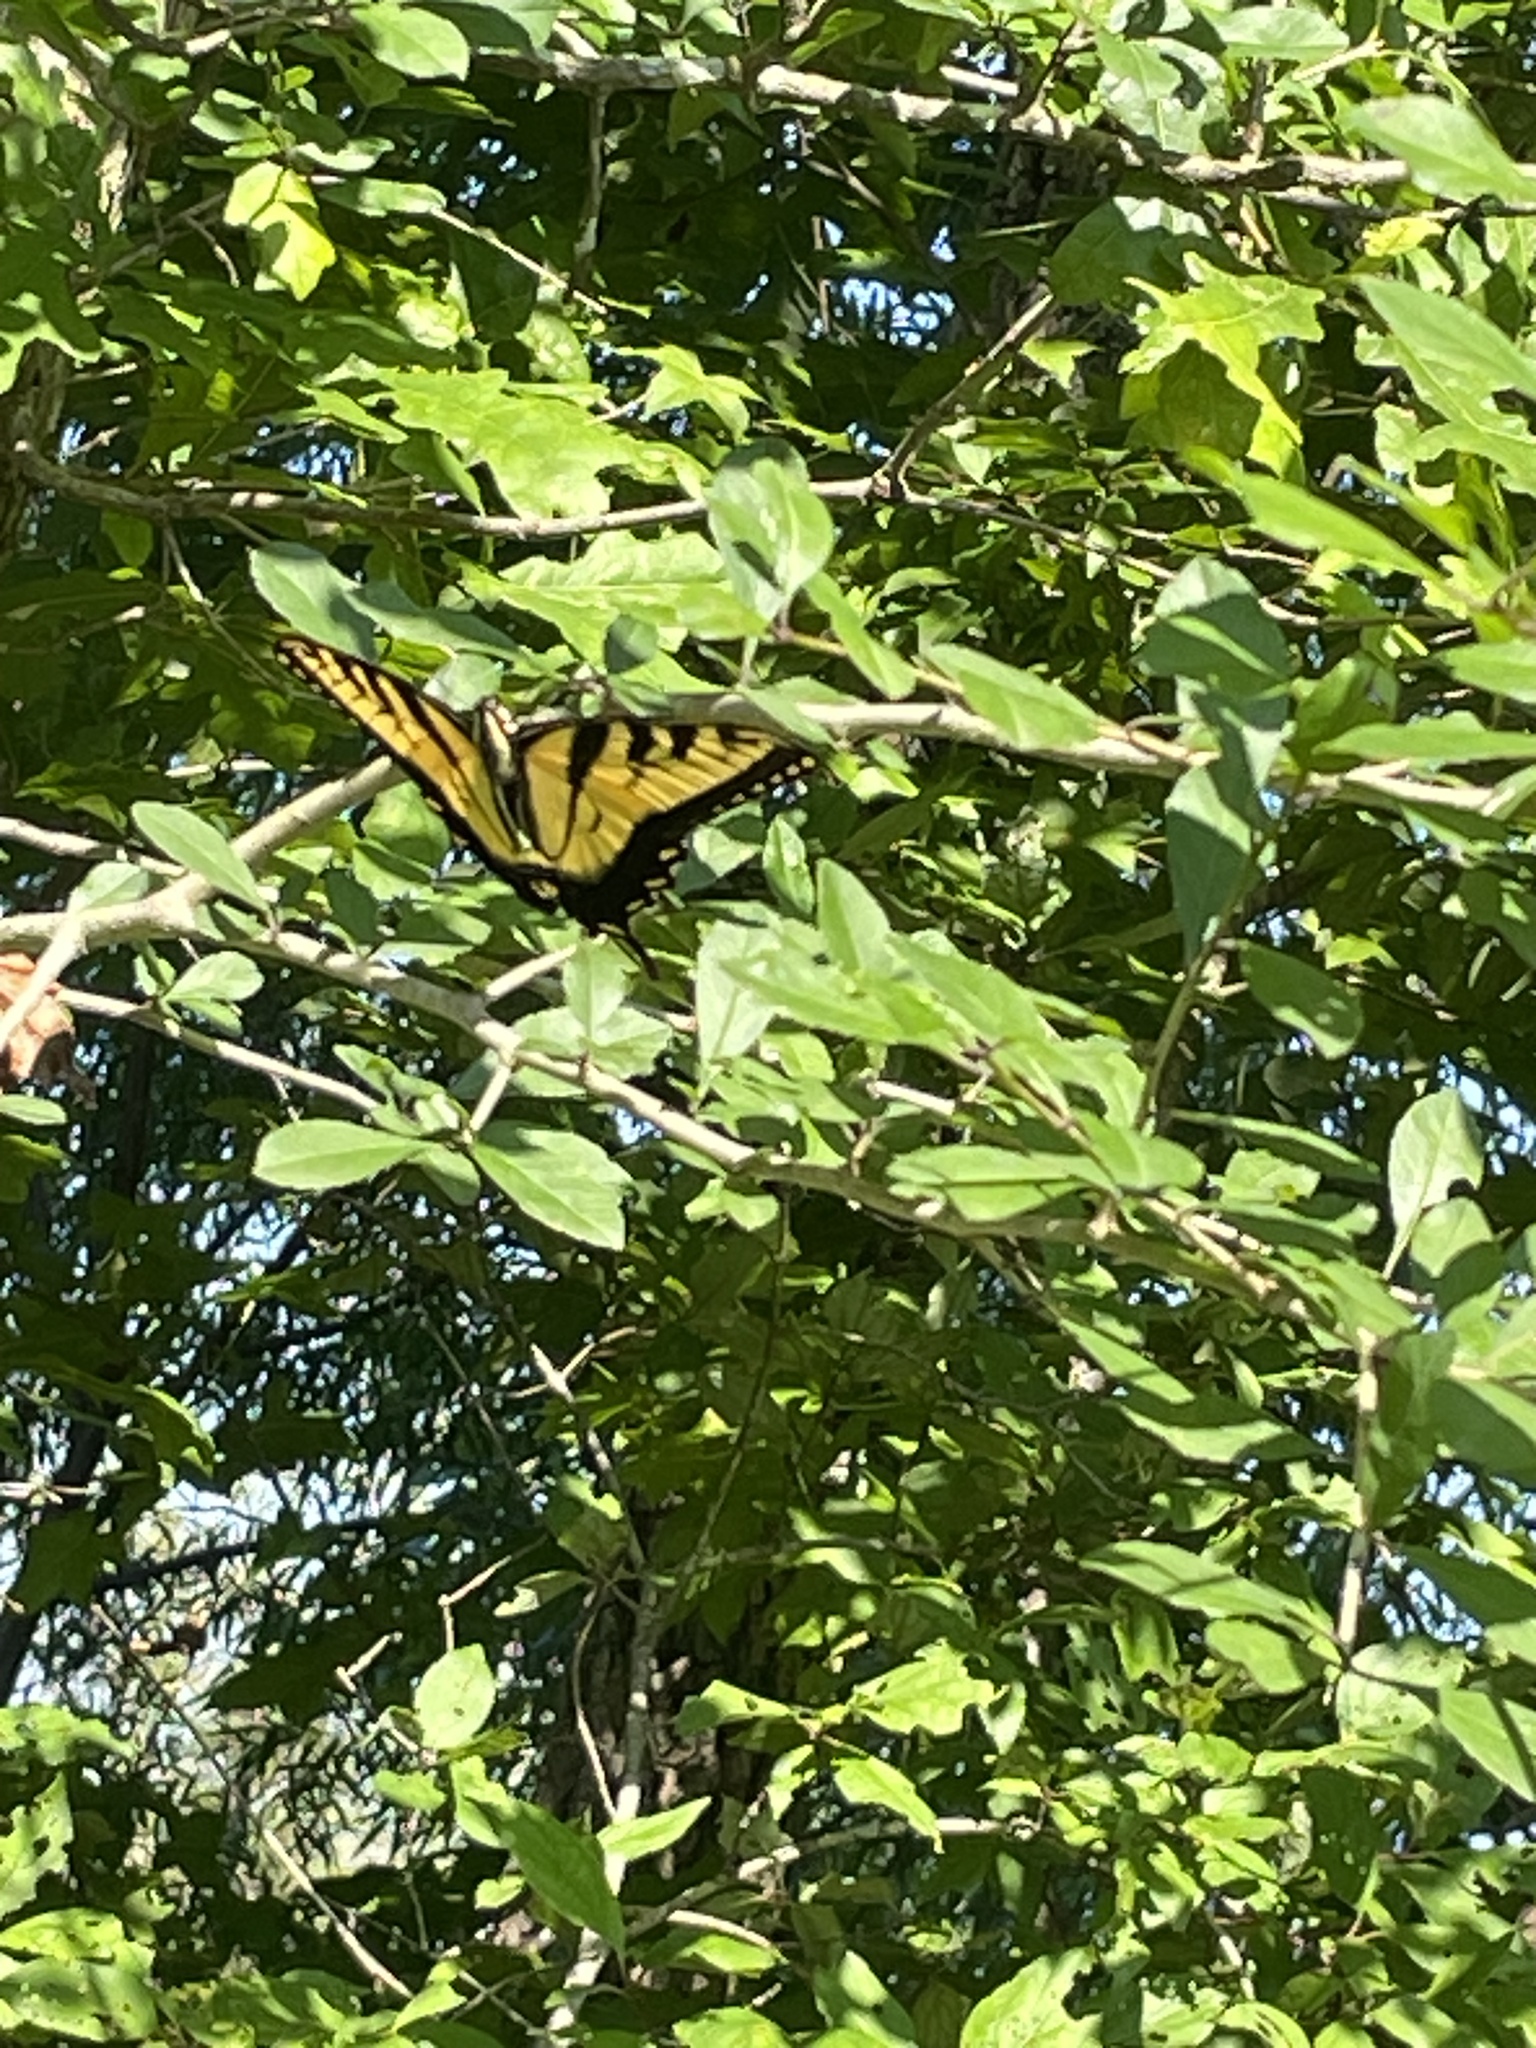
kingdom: Animalia
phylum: Arthropoda
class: Insecta
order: Lepidoptera
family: Papilionidae
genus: Papilio
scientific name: Papilio glaucus
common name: Tiger swallowtail
